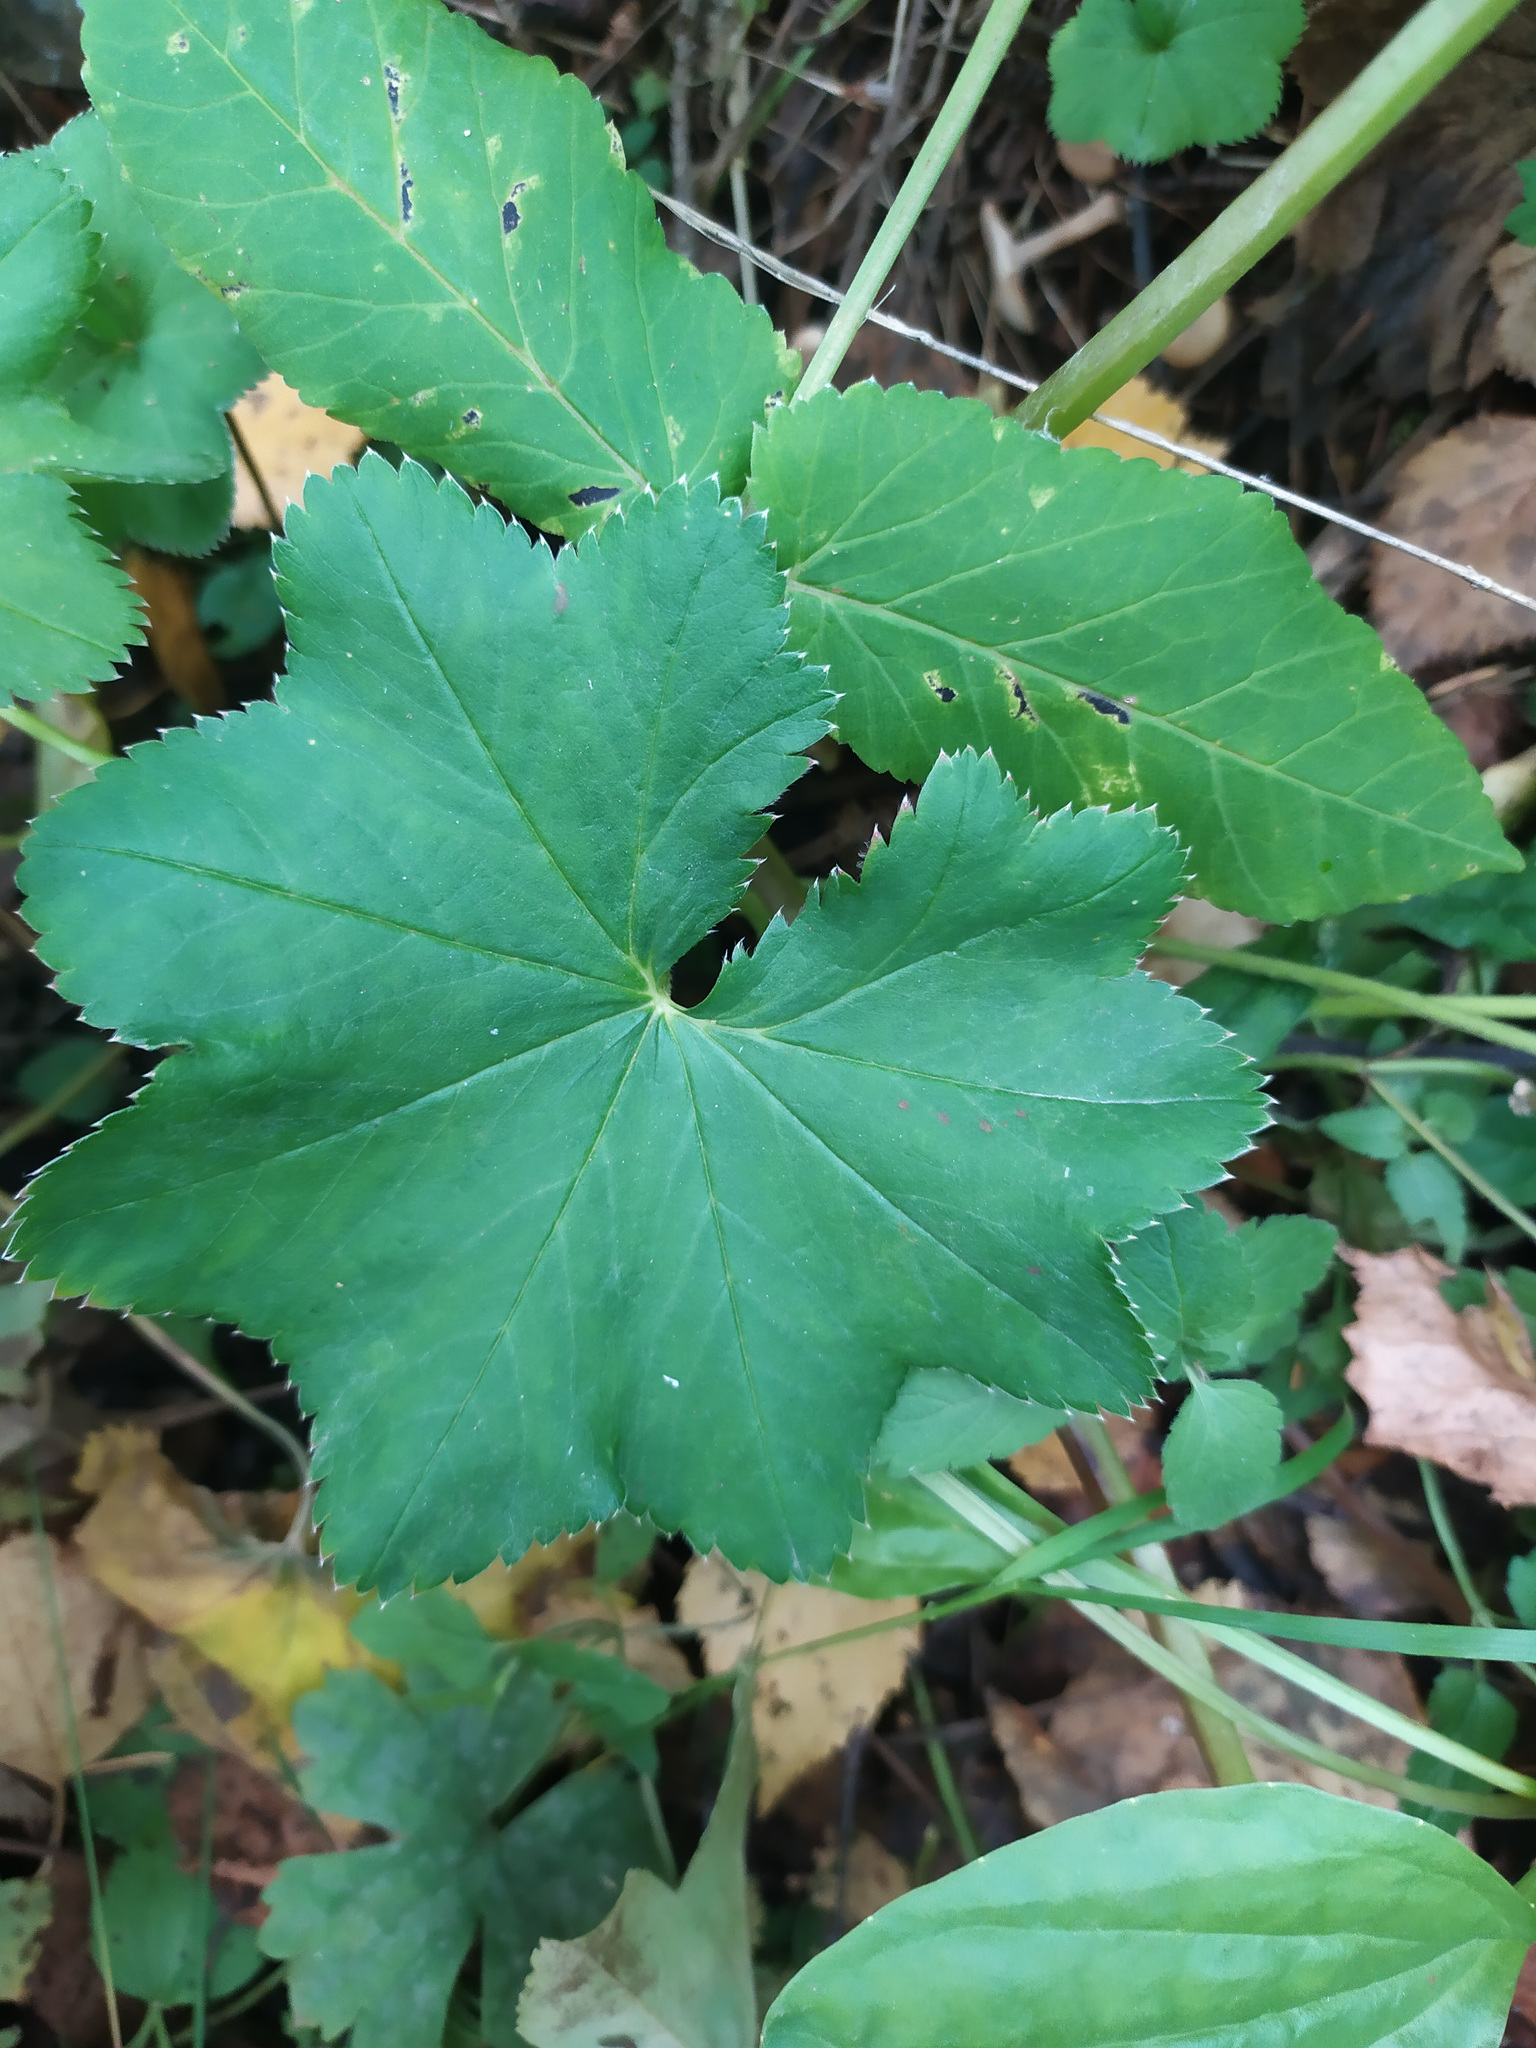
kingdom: Plantae
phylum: Tracheophyta
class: Magnoliopsida
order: Rosales
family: Rosaceae
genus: Alchemilla
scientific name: Alchemilla
